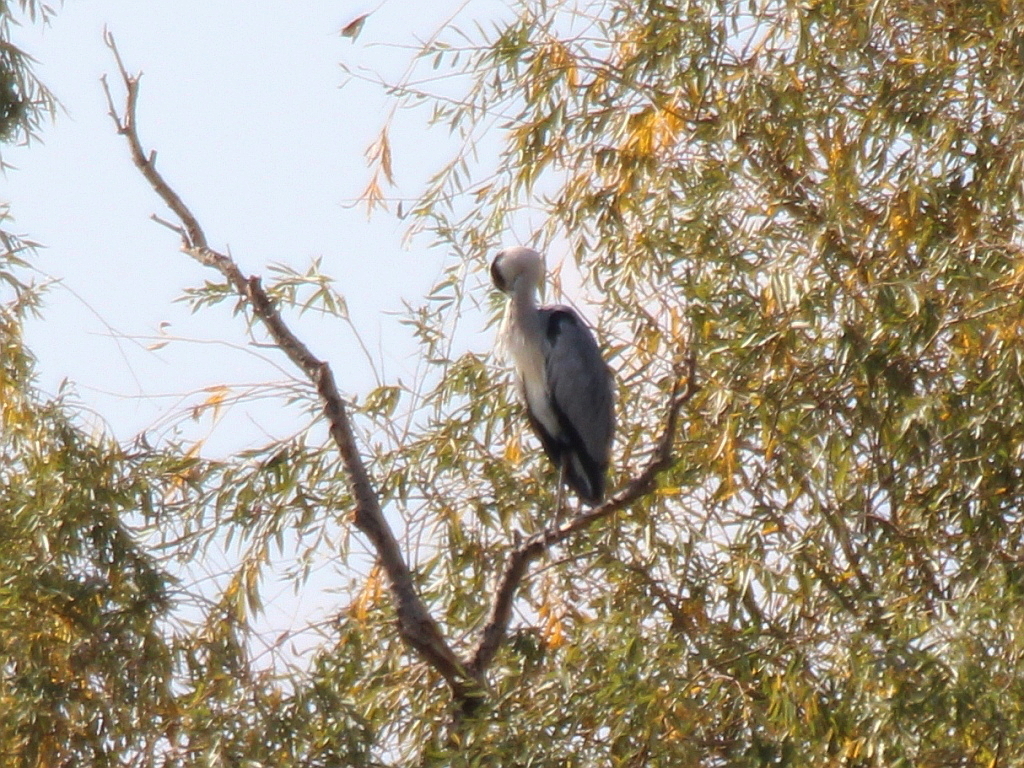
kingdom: Animalia
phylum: Chordata
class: Aves
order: Pelecaniformes
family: Ardeidae
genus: Ardea
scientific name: Ardea cinerea
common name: Grey heron
